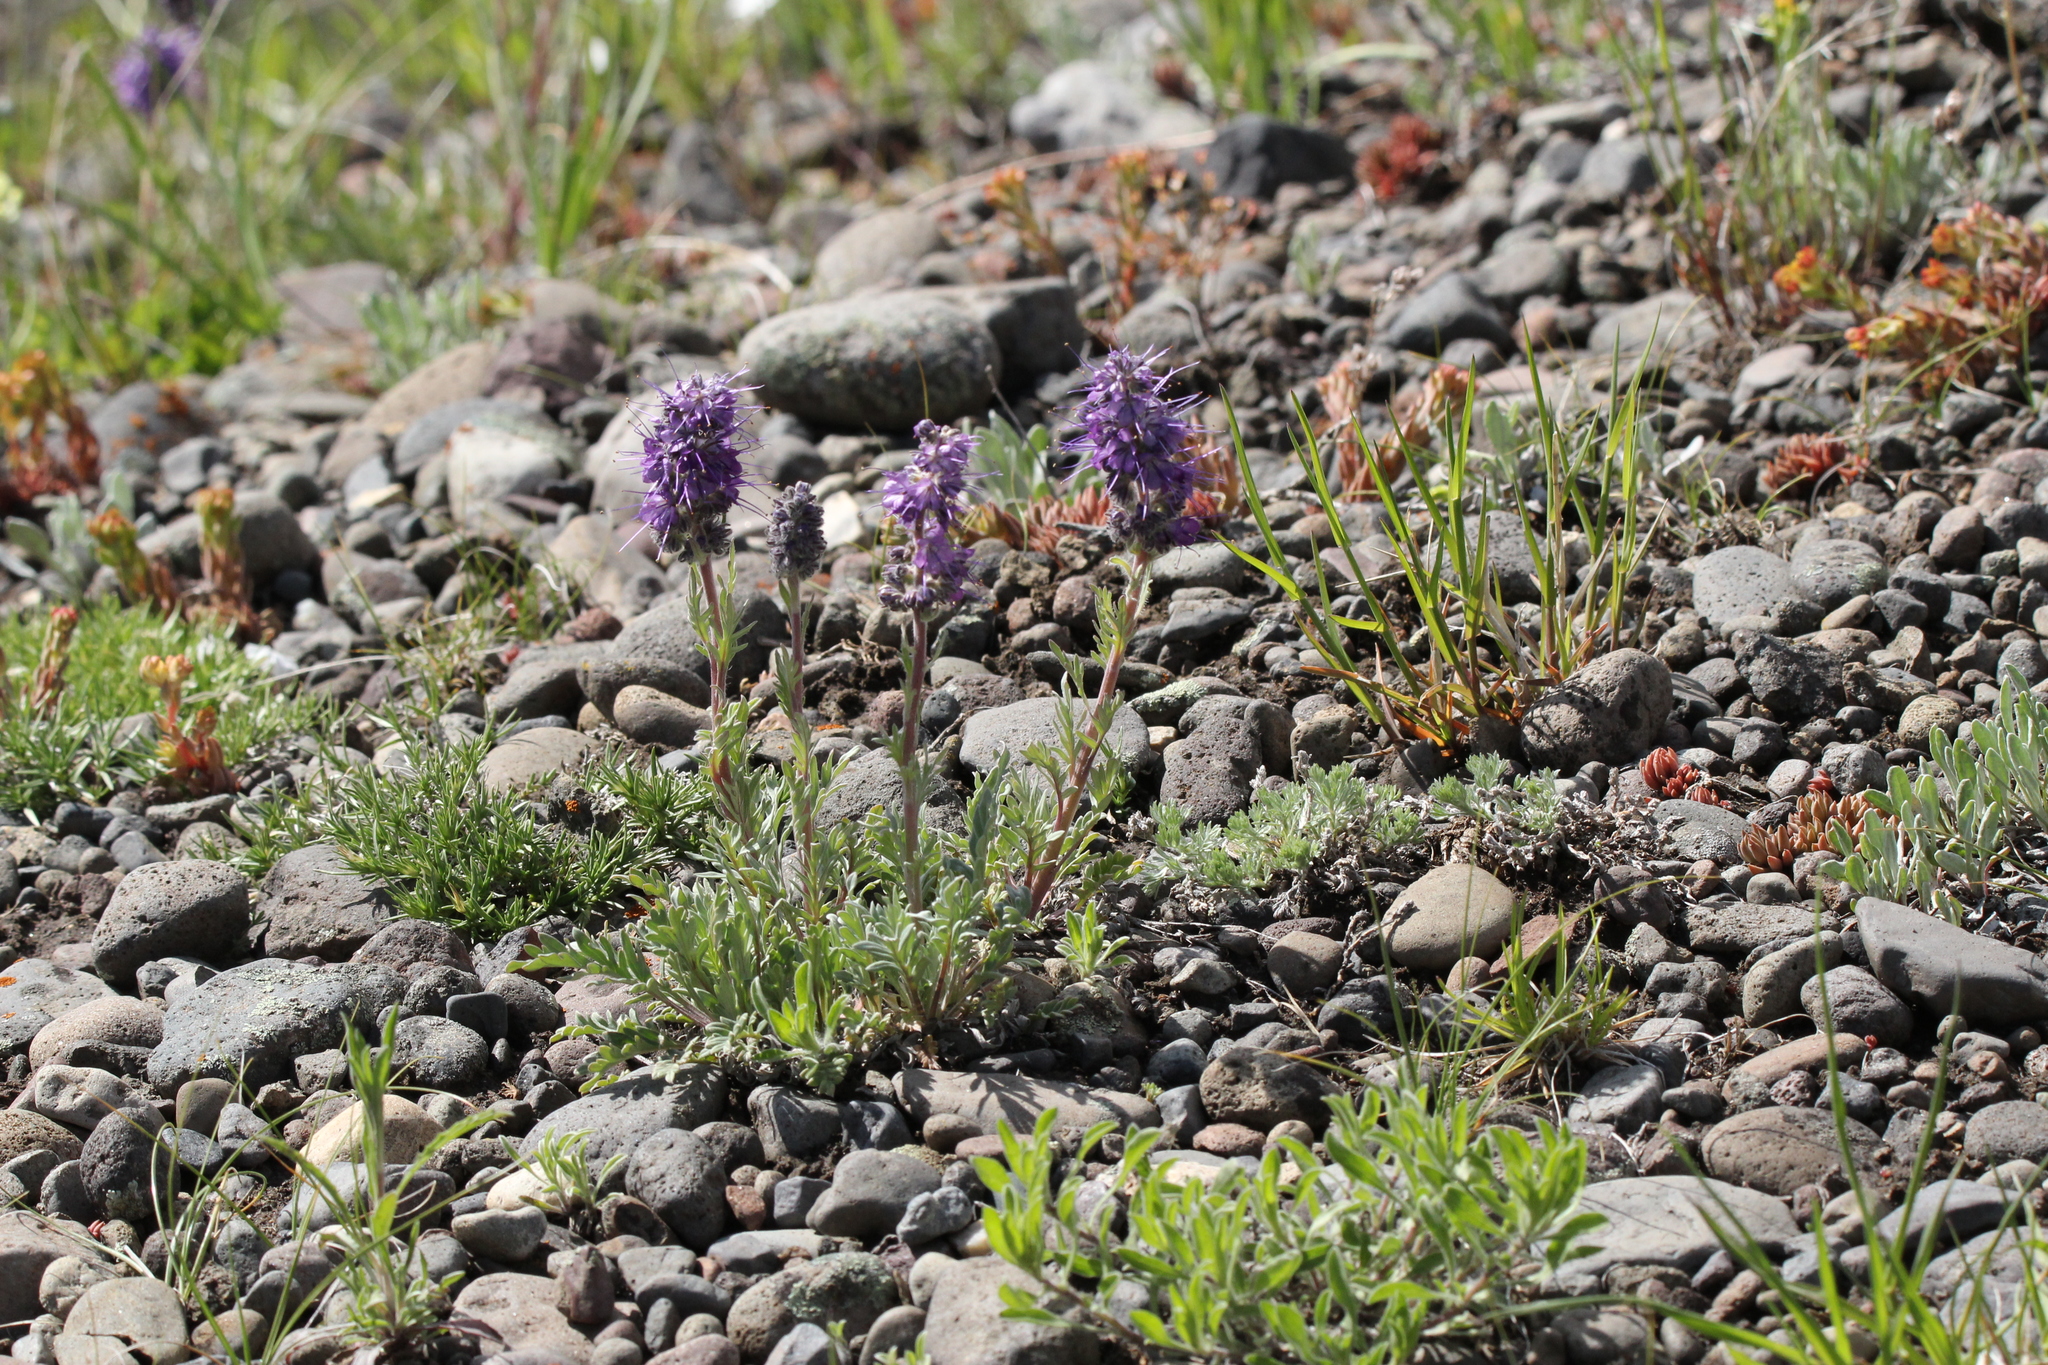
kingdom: Plantae
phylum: Tracheophyta
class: Magnoliopsida
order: Boraginales
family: Hydrophyllaceae
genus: Phacelia
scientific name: Phacelia sericea
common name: Silky phacelia
